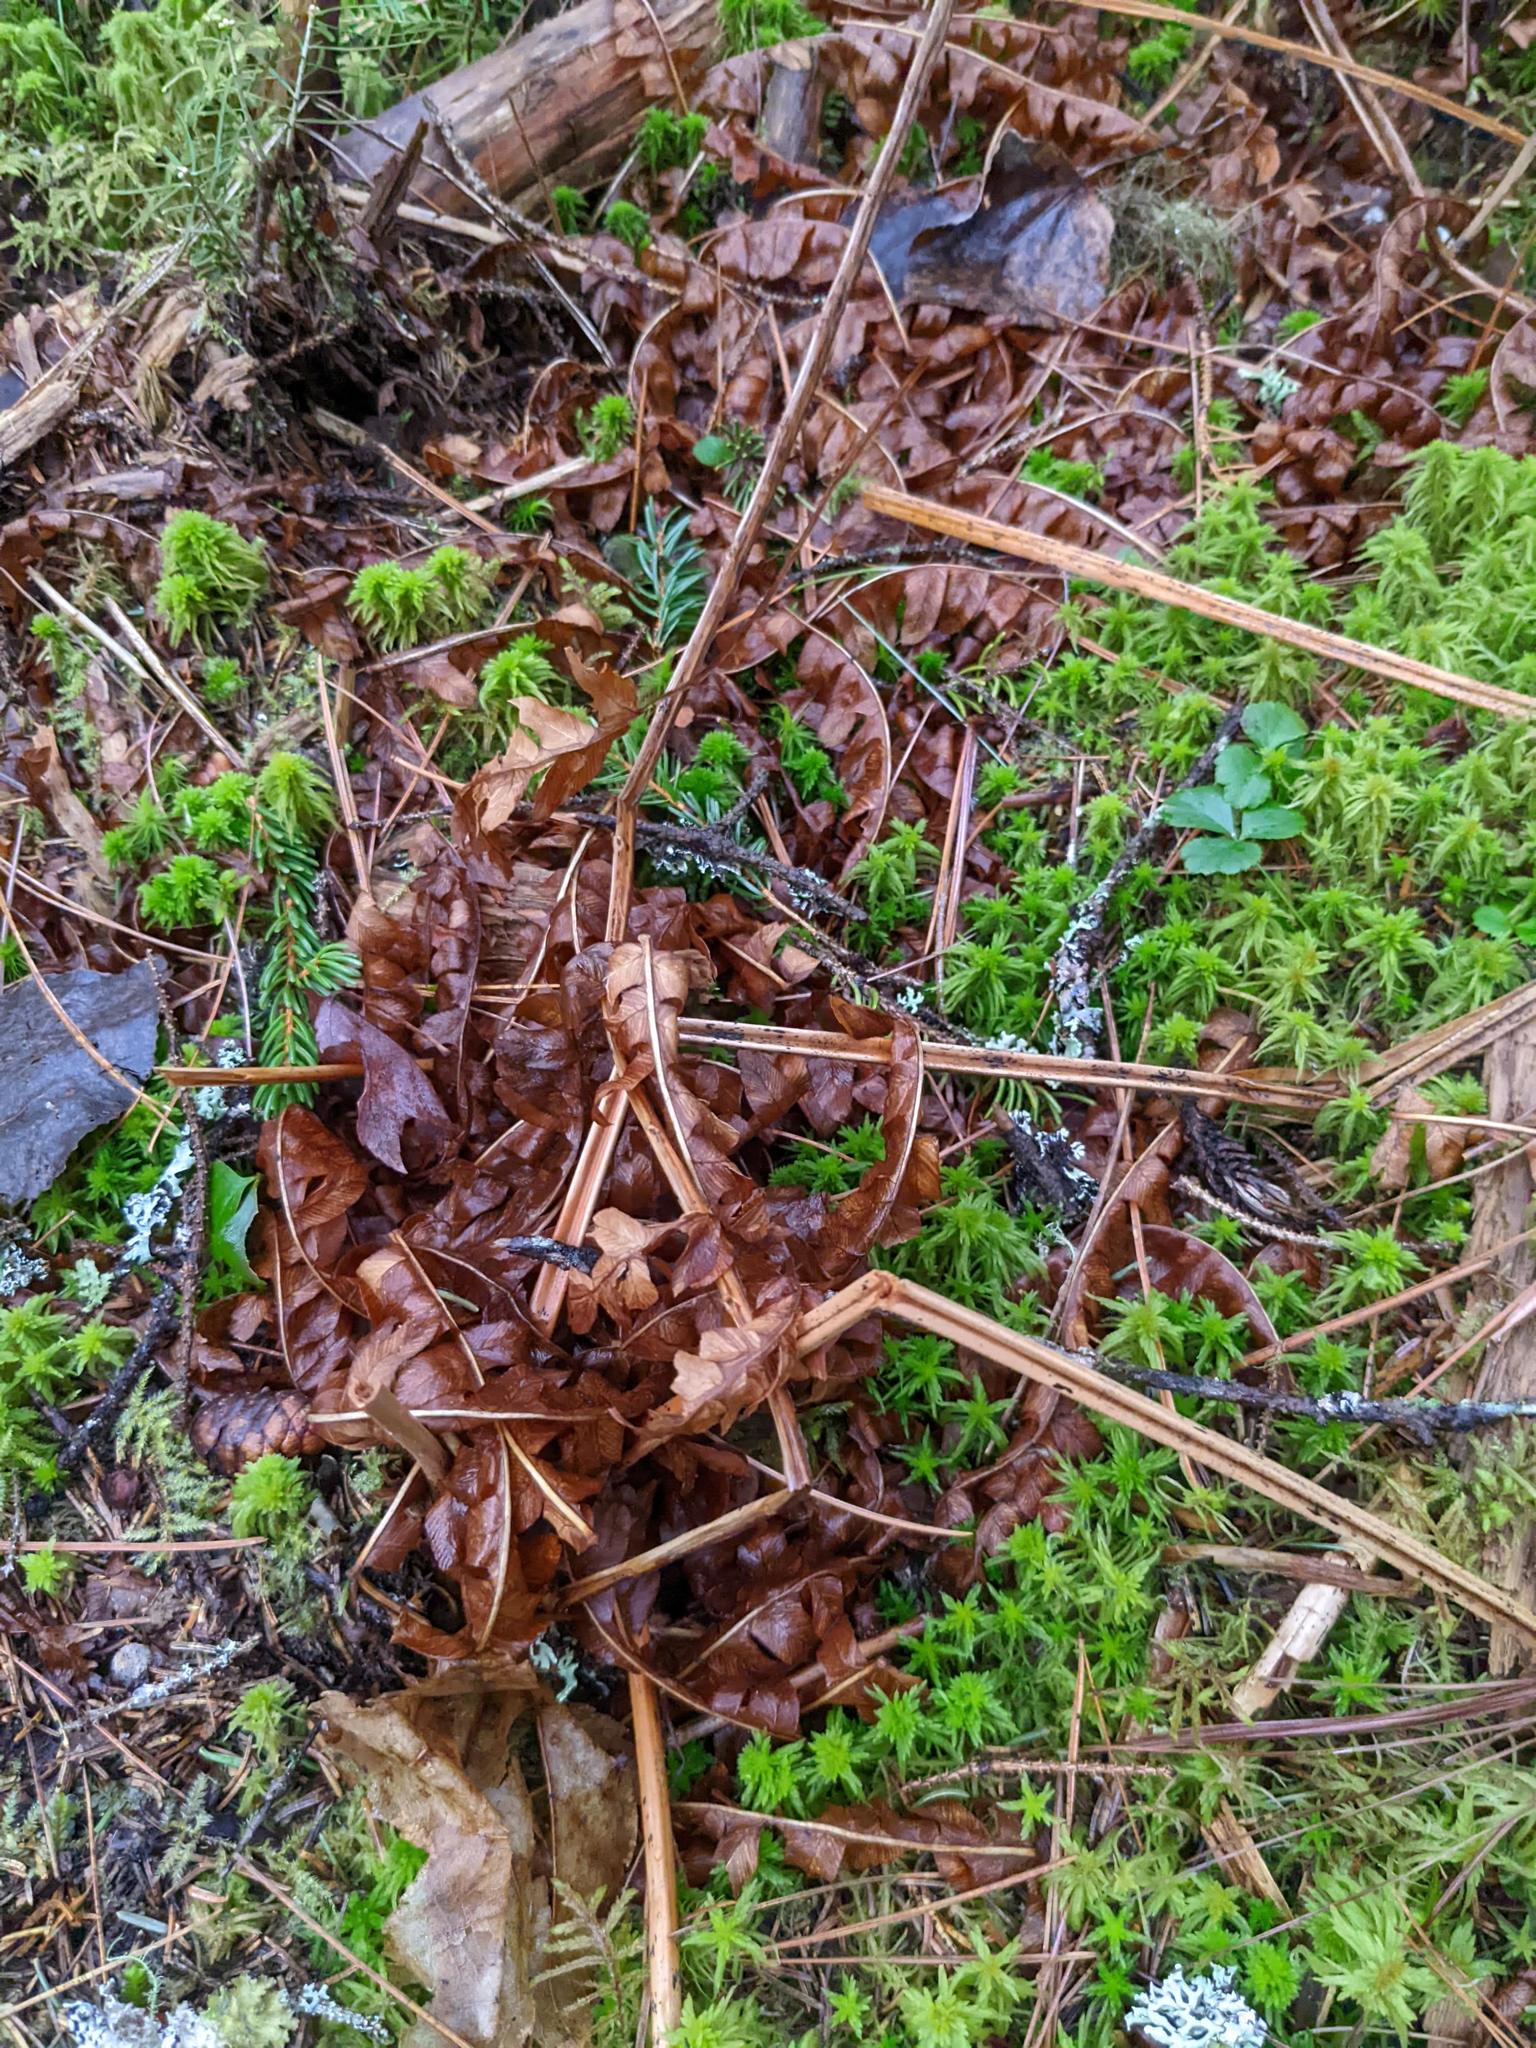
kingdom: Plantae
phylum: Tracheophyta
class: Polypodiopsida
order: Polypodiales
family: Dennstaedtiaceae
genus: Pteridium
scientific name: Pteridium aquilinum
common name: Bracken
